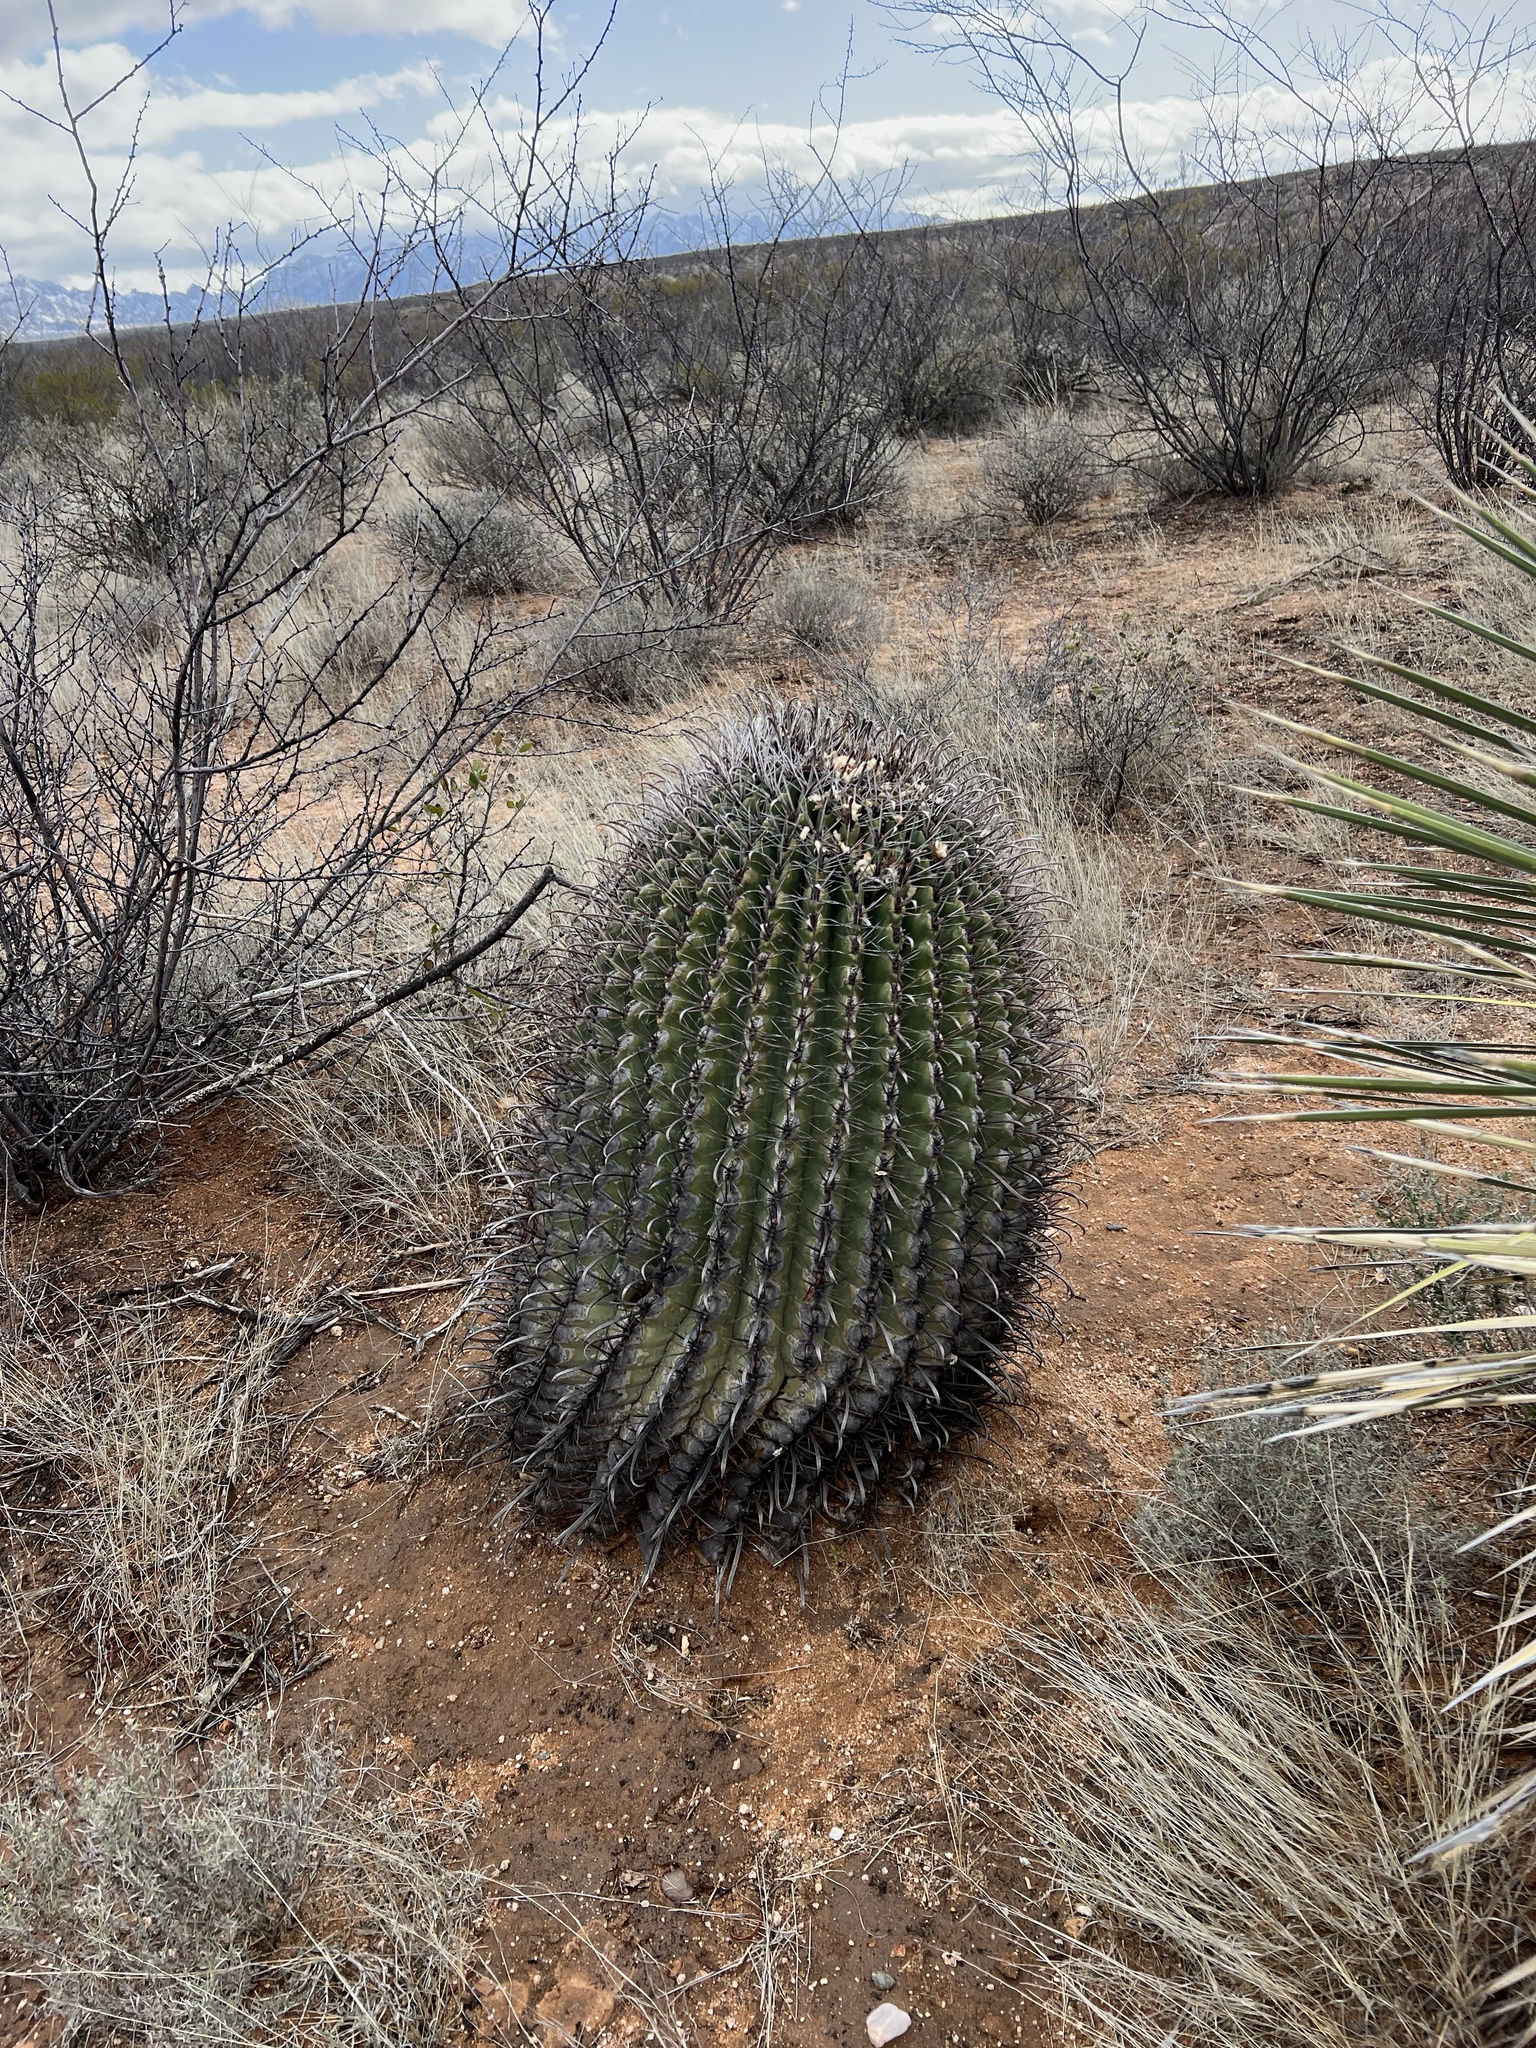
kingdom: Plantae
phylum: Tracheophyta
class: Magnoliopsida
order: Caryophyllales
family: Cactaceae
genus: Ferocactus
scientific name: Ferocactus wislizeni
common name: Candy barrel cactus
